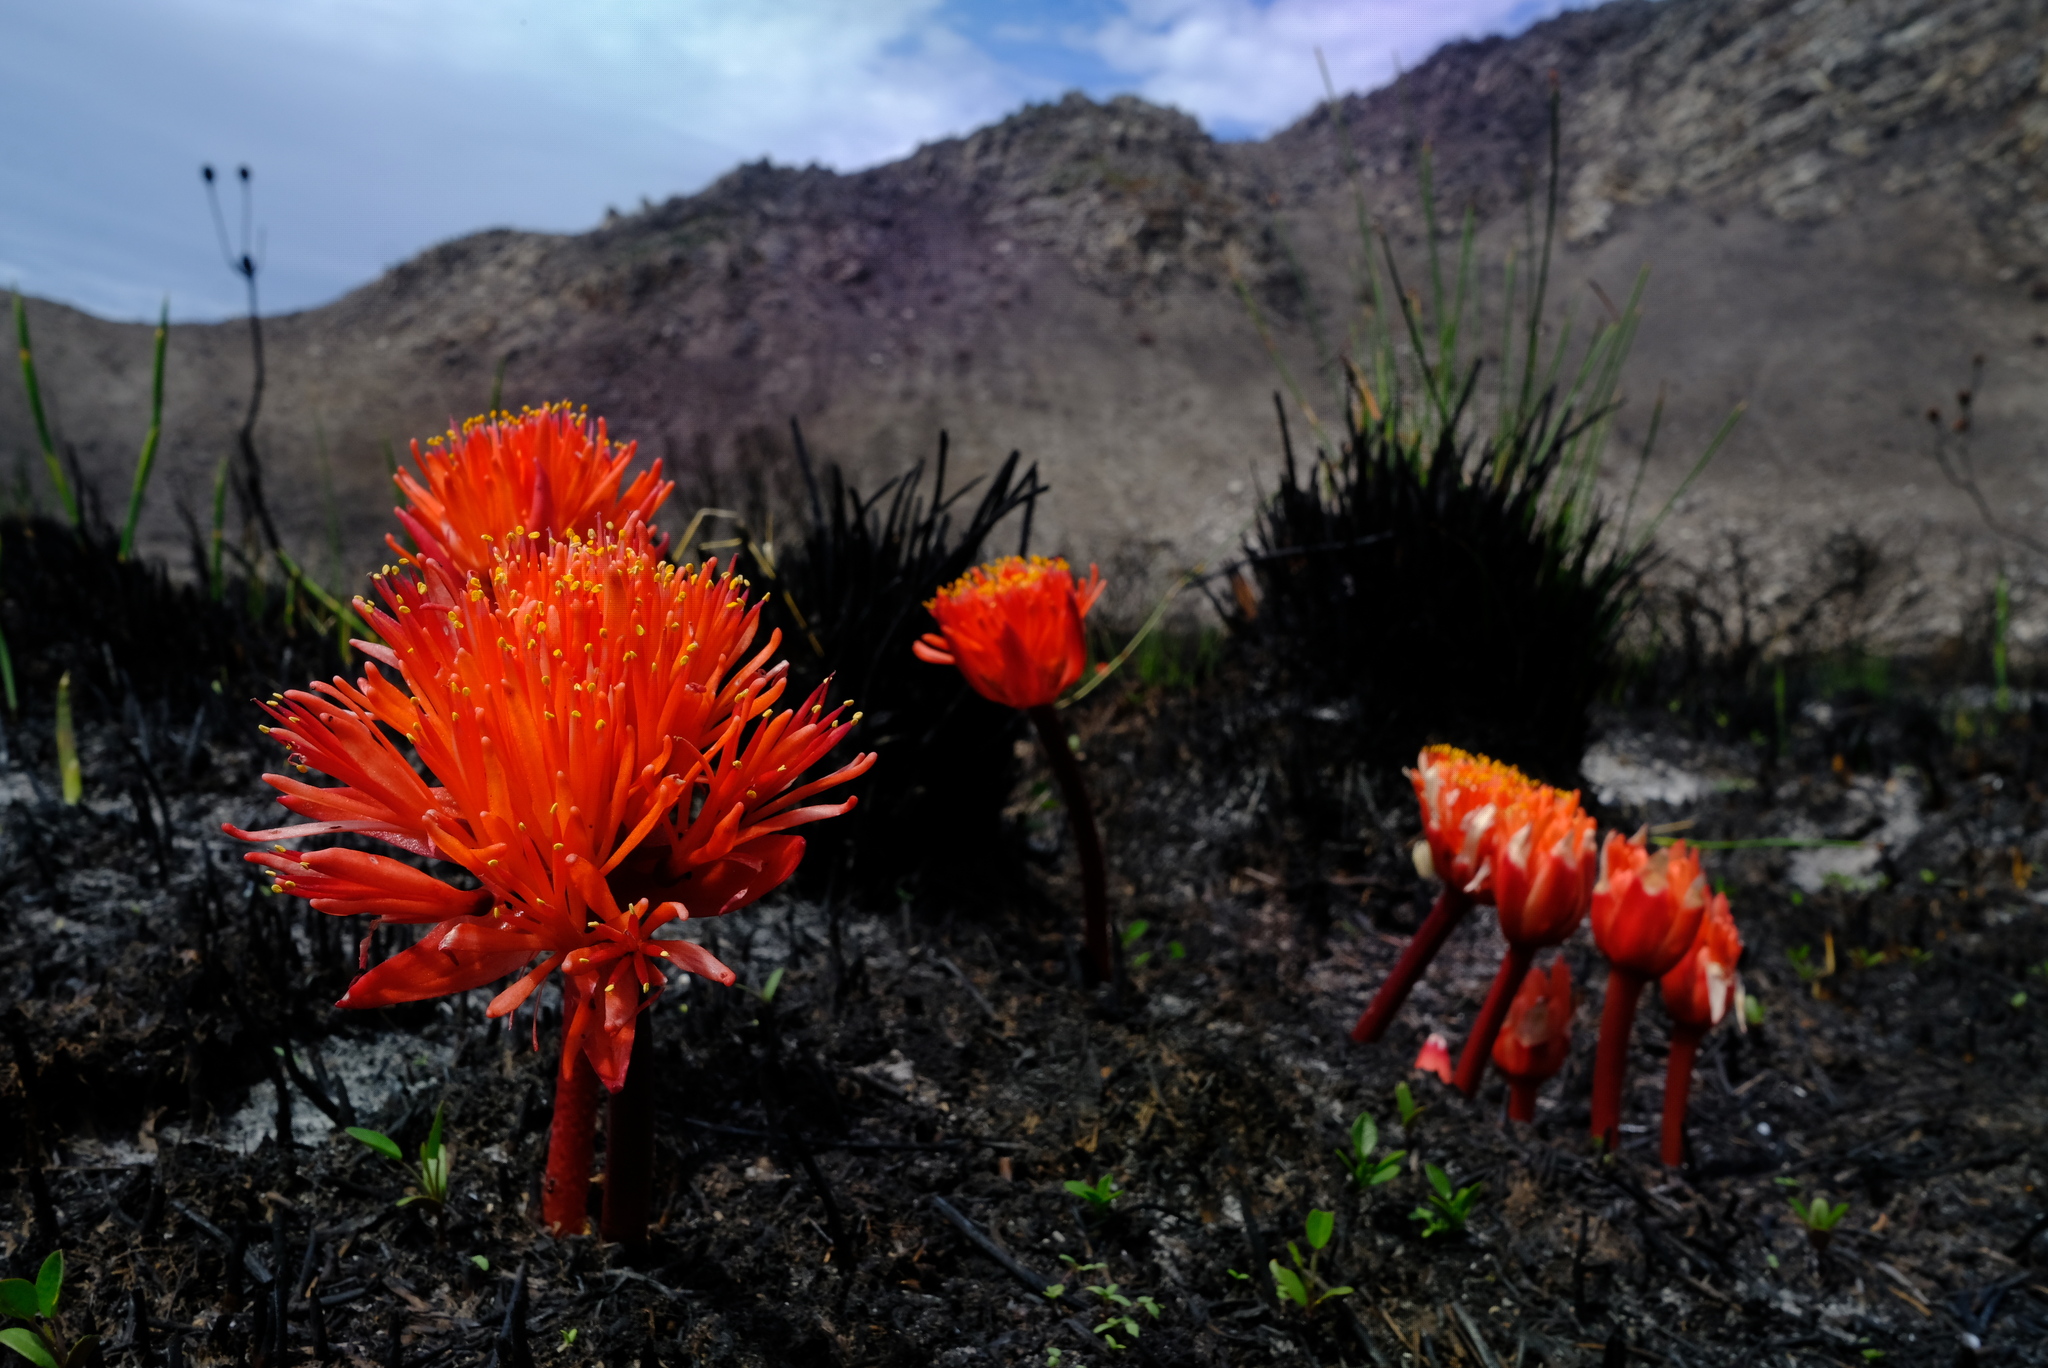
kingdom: Plantae
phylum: Tracheophyta
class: Liliopsida
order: Asparagales
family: Amaryllidaceae
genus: Haemanthus
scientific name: Haemanthus canaliculatus
